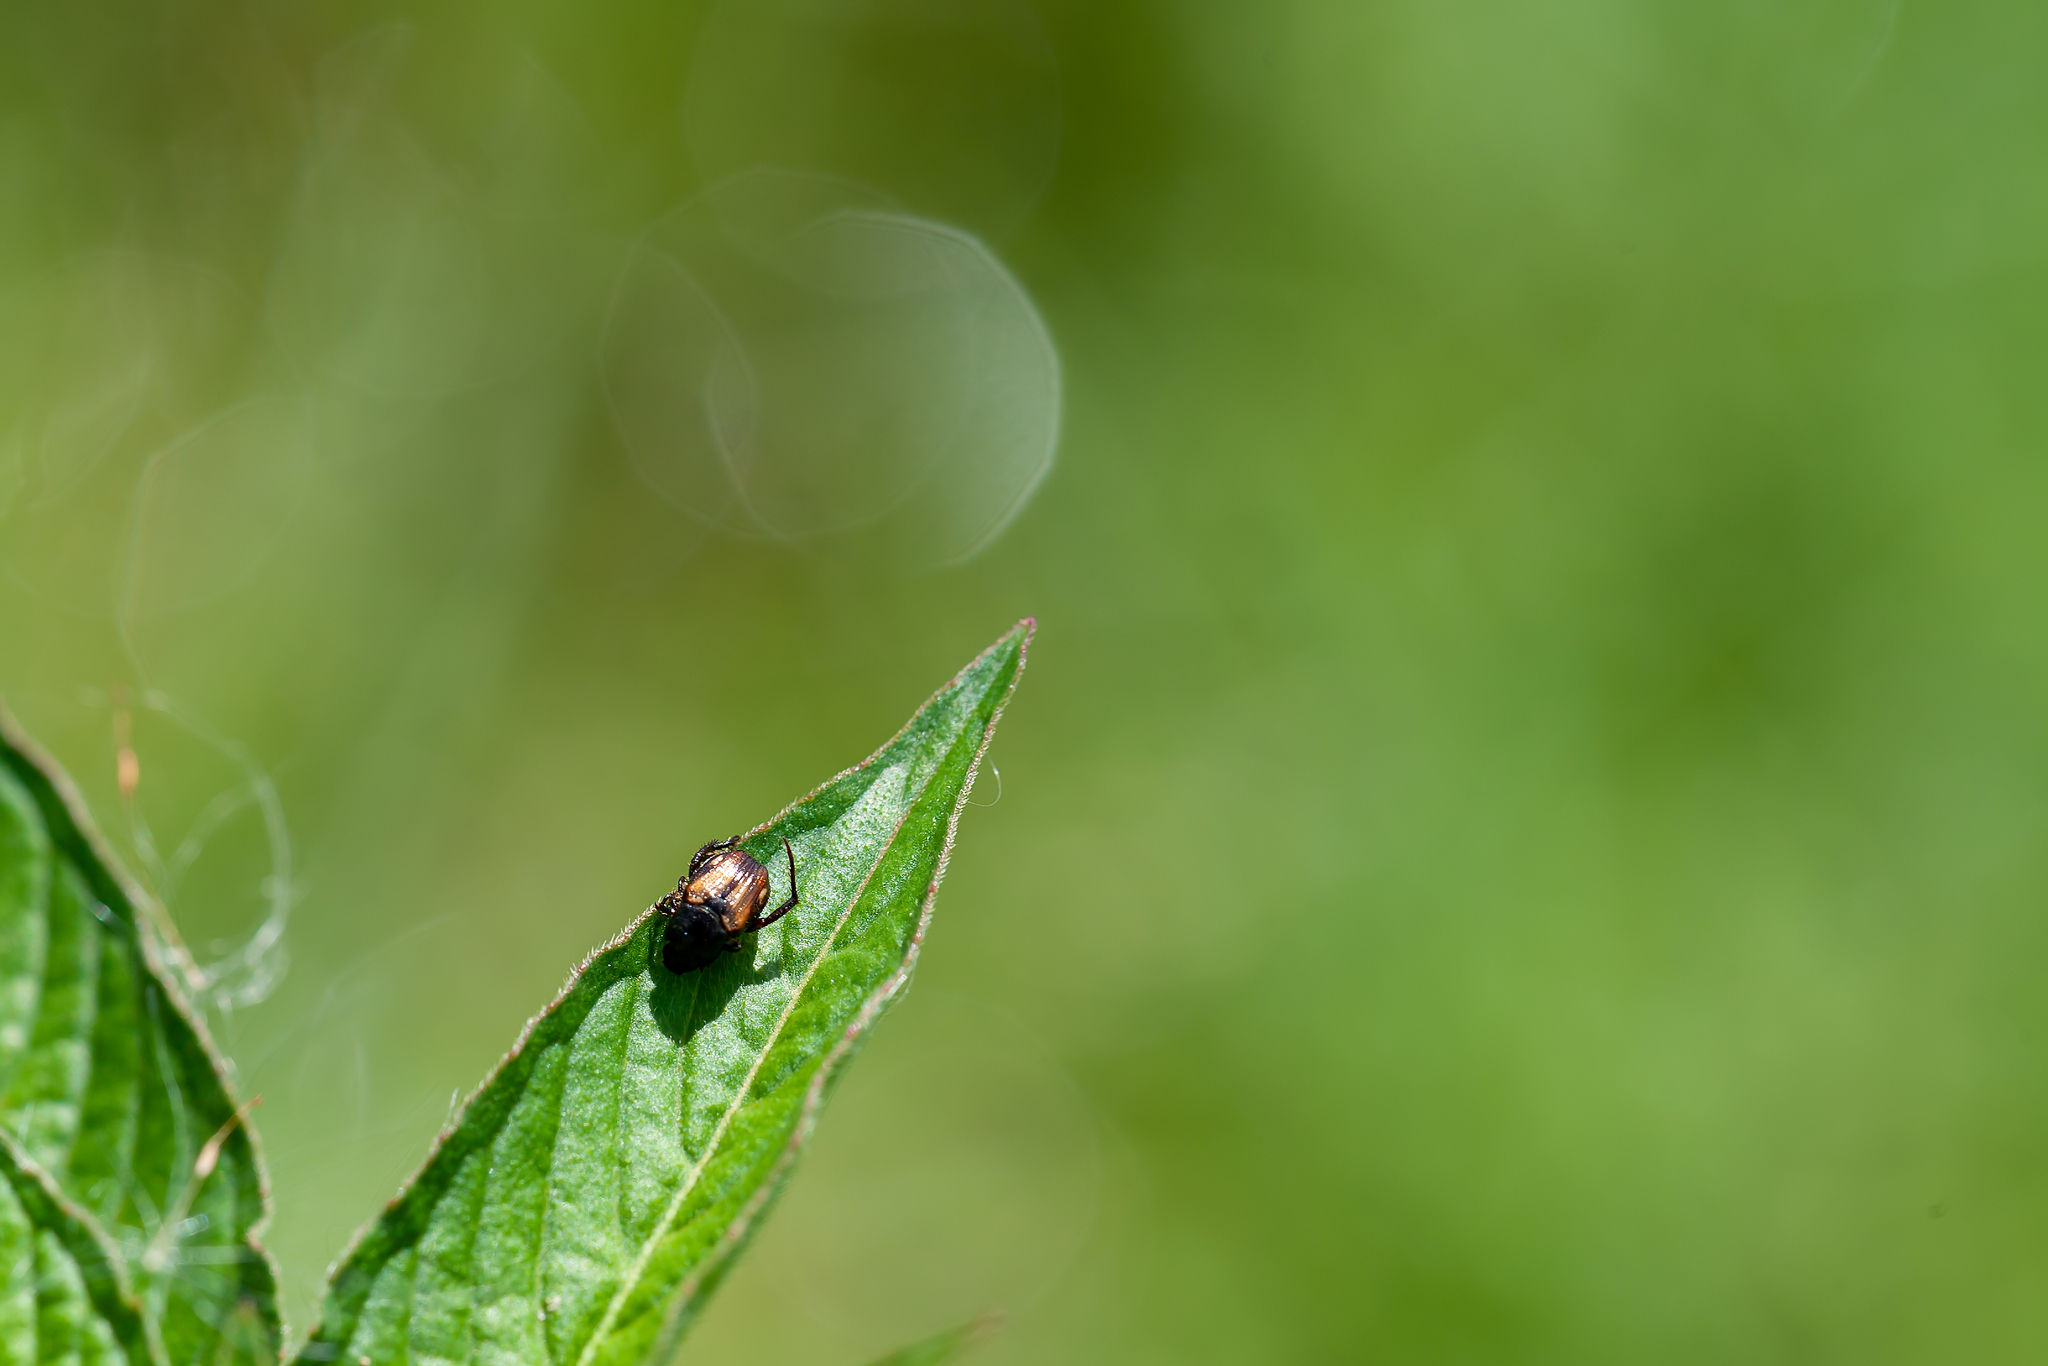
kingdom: Animalia
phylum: Arthropoda
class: Insecta
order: Coleoptera
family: Scarabaeidae
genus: Strigoderma
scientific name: Strigoderma pygmaea
